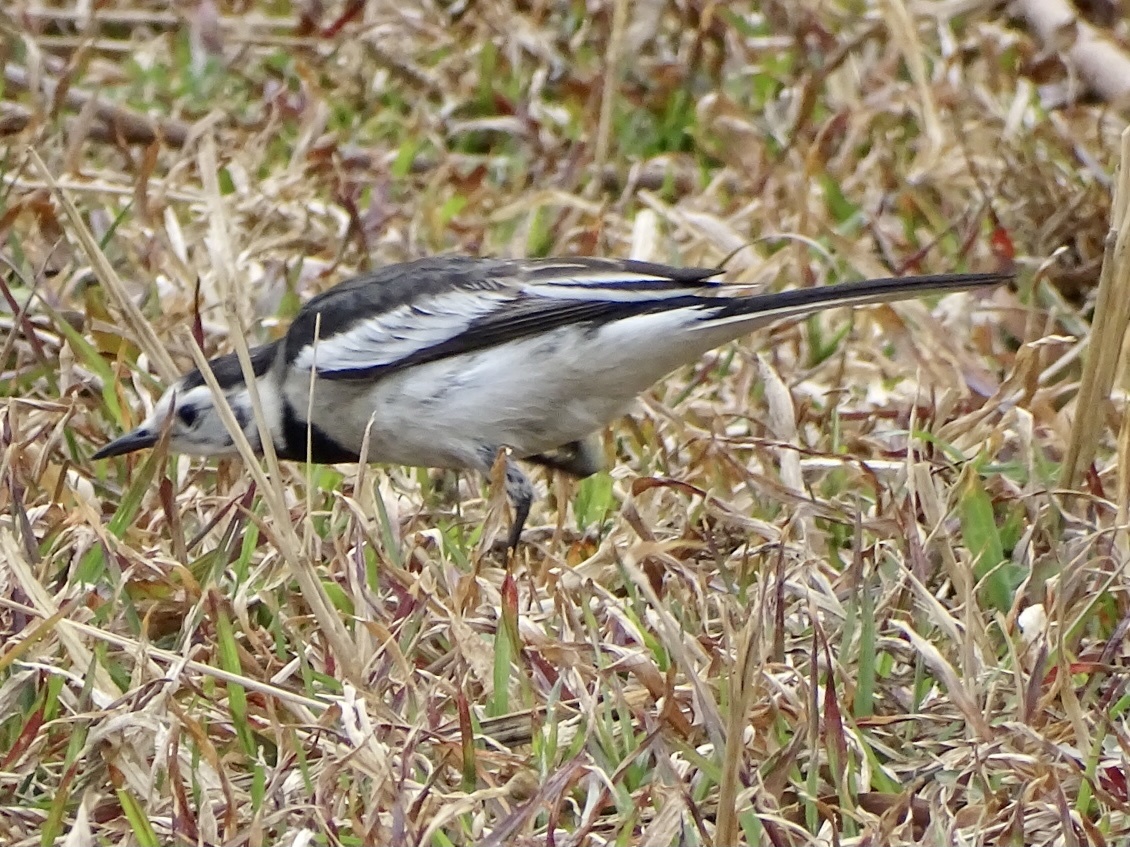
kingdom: Animalia
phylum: Chordata
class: Aves
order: Passeriformes
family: Motacillidae
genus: Motacilla
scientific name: Motacilla alba
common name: White wagtail
